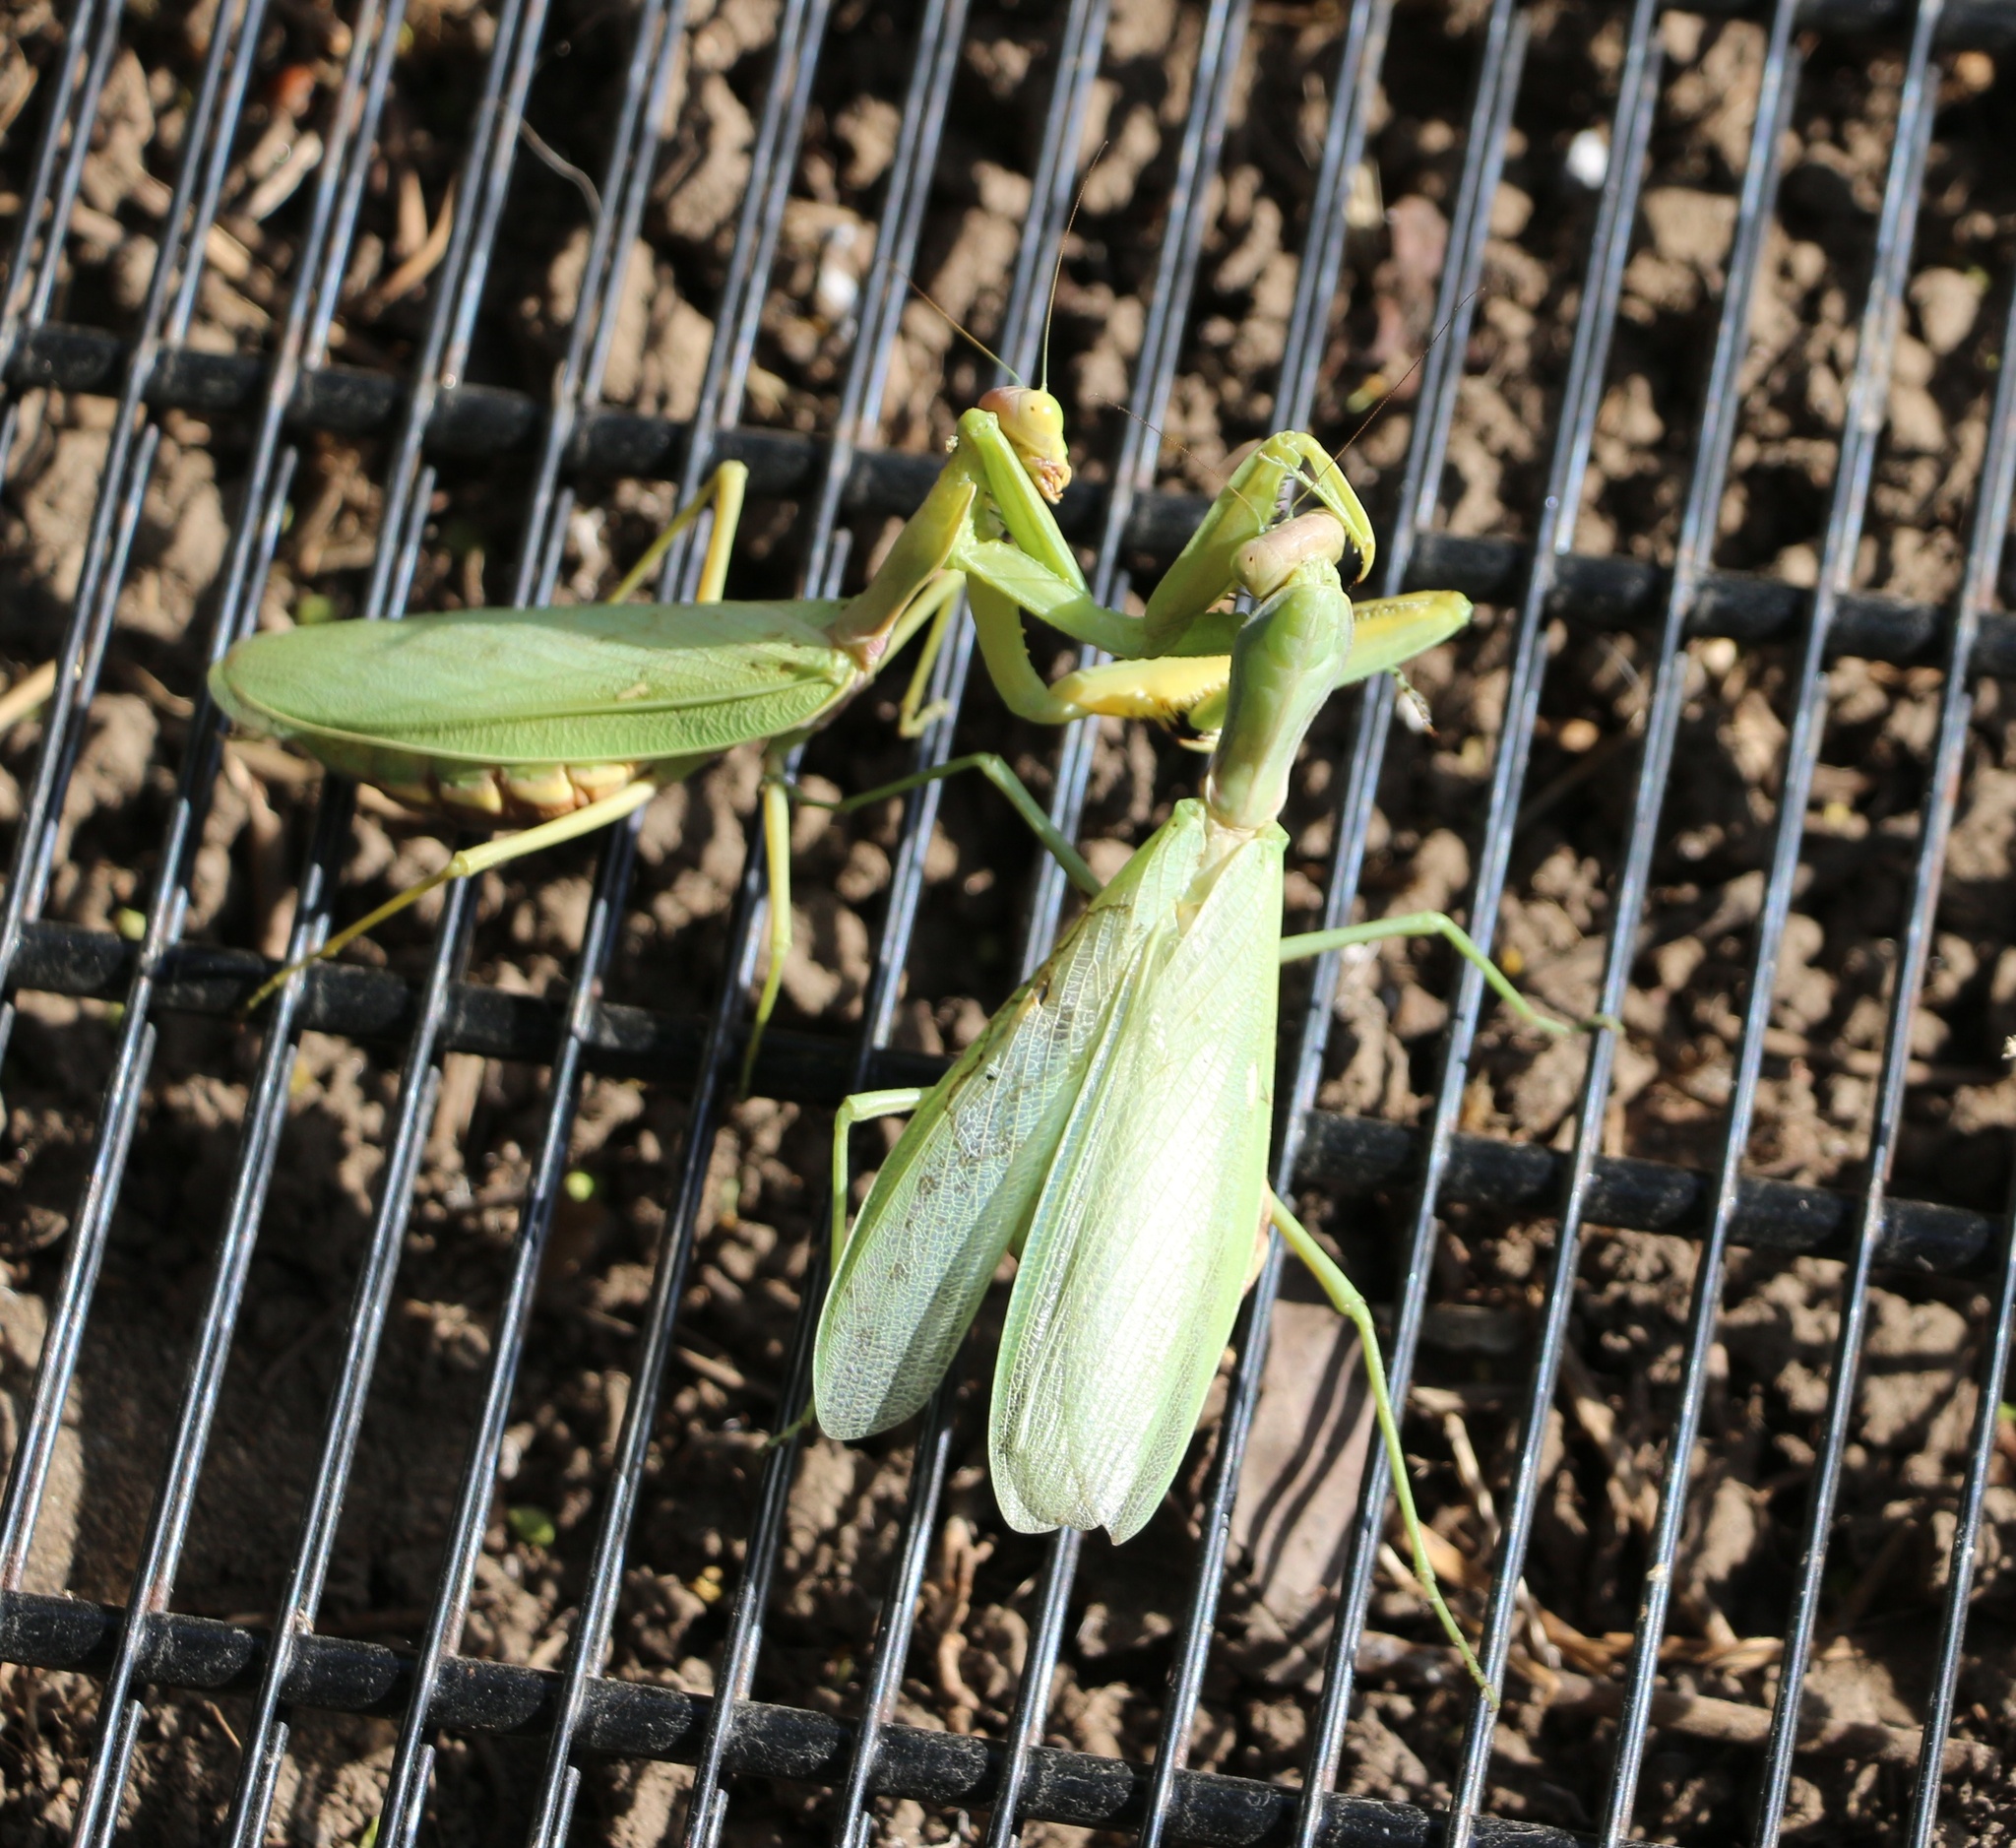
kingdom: Animalia
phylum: Arthropoda
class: Insecta
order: Mantodea
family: Mantidae
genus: Hierodula
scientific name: Hierodula transcaucasica
